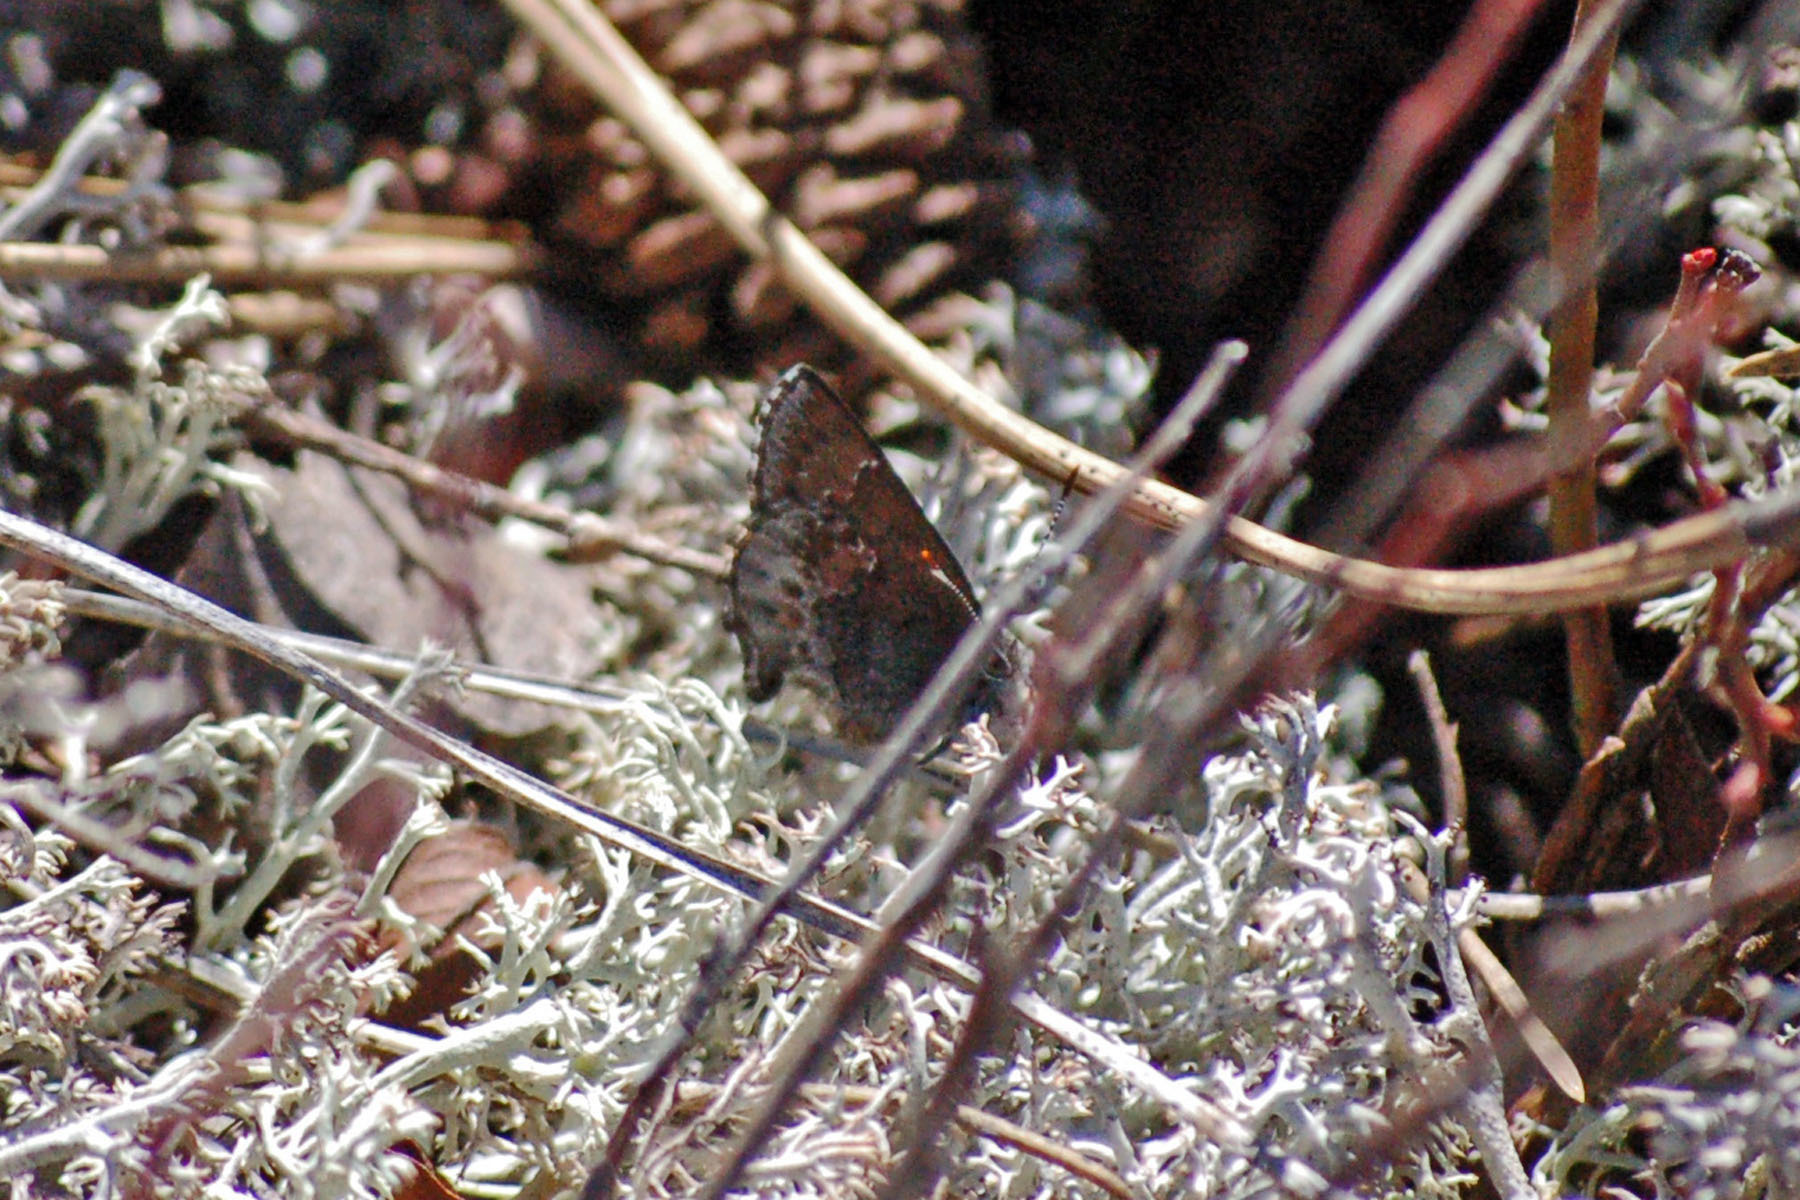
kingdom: Animalia
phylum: Arthropoda
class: Insecta
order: Lepidoptera
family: Lycaenidae
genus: Callophrys
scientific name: Callophrys polios
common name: Hoary elfin
